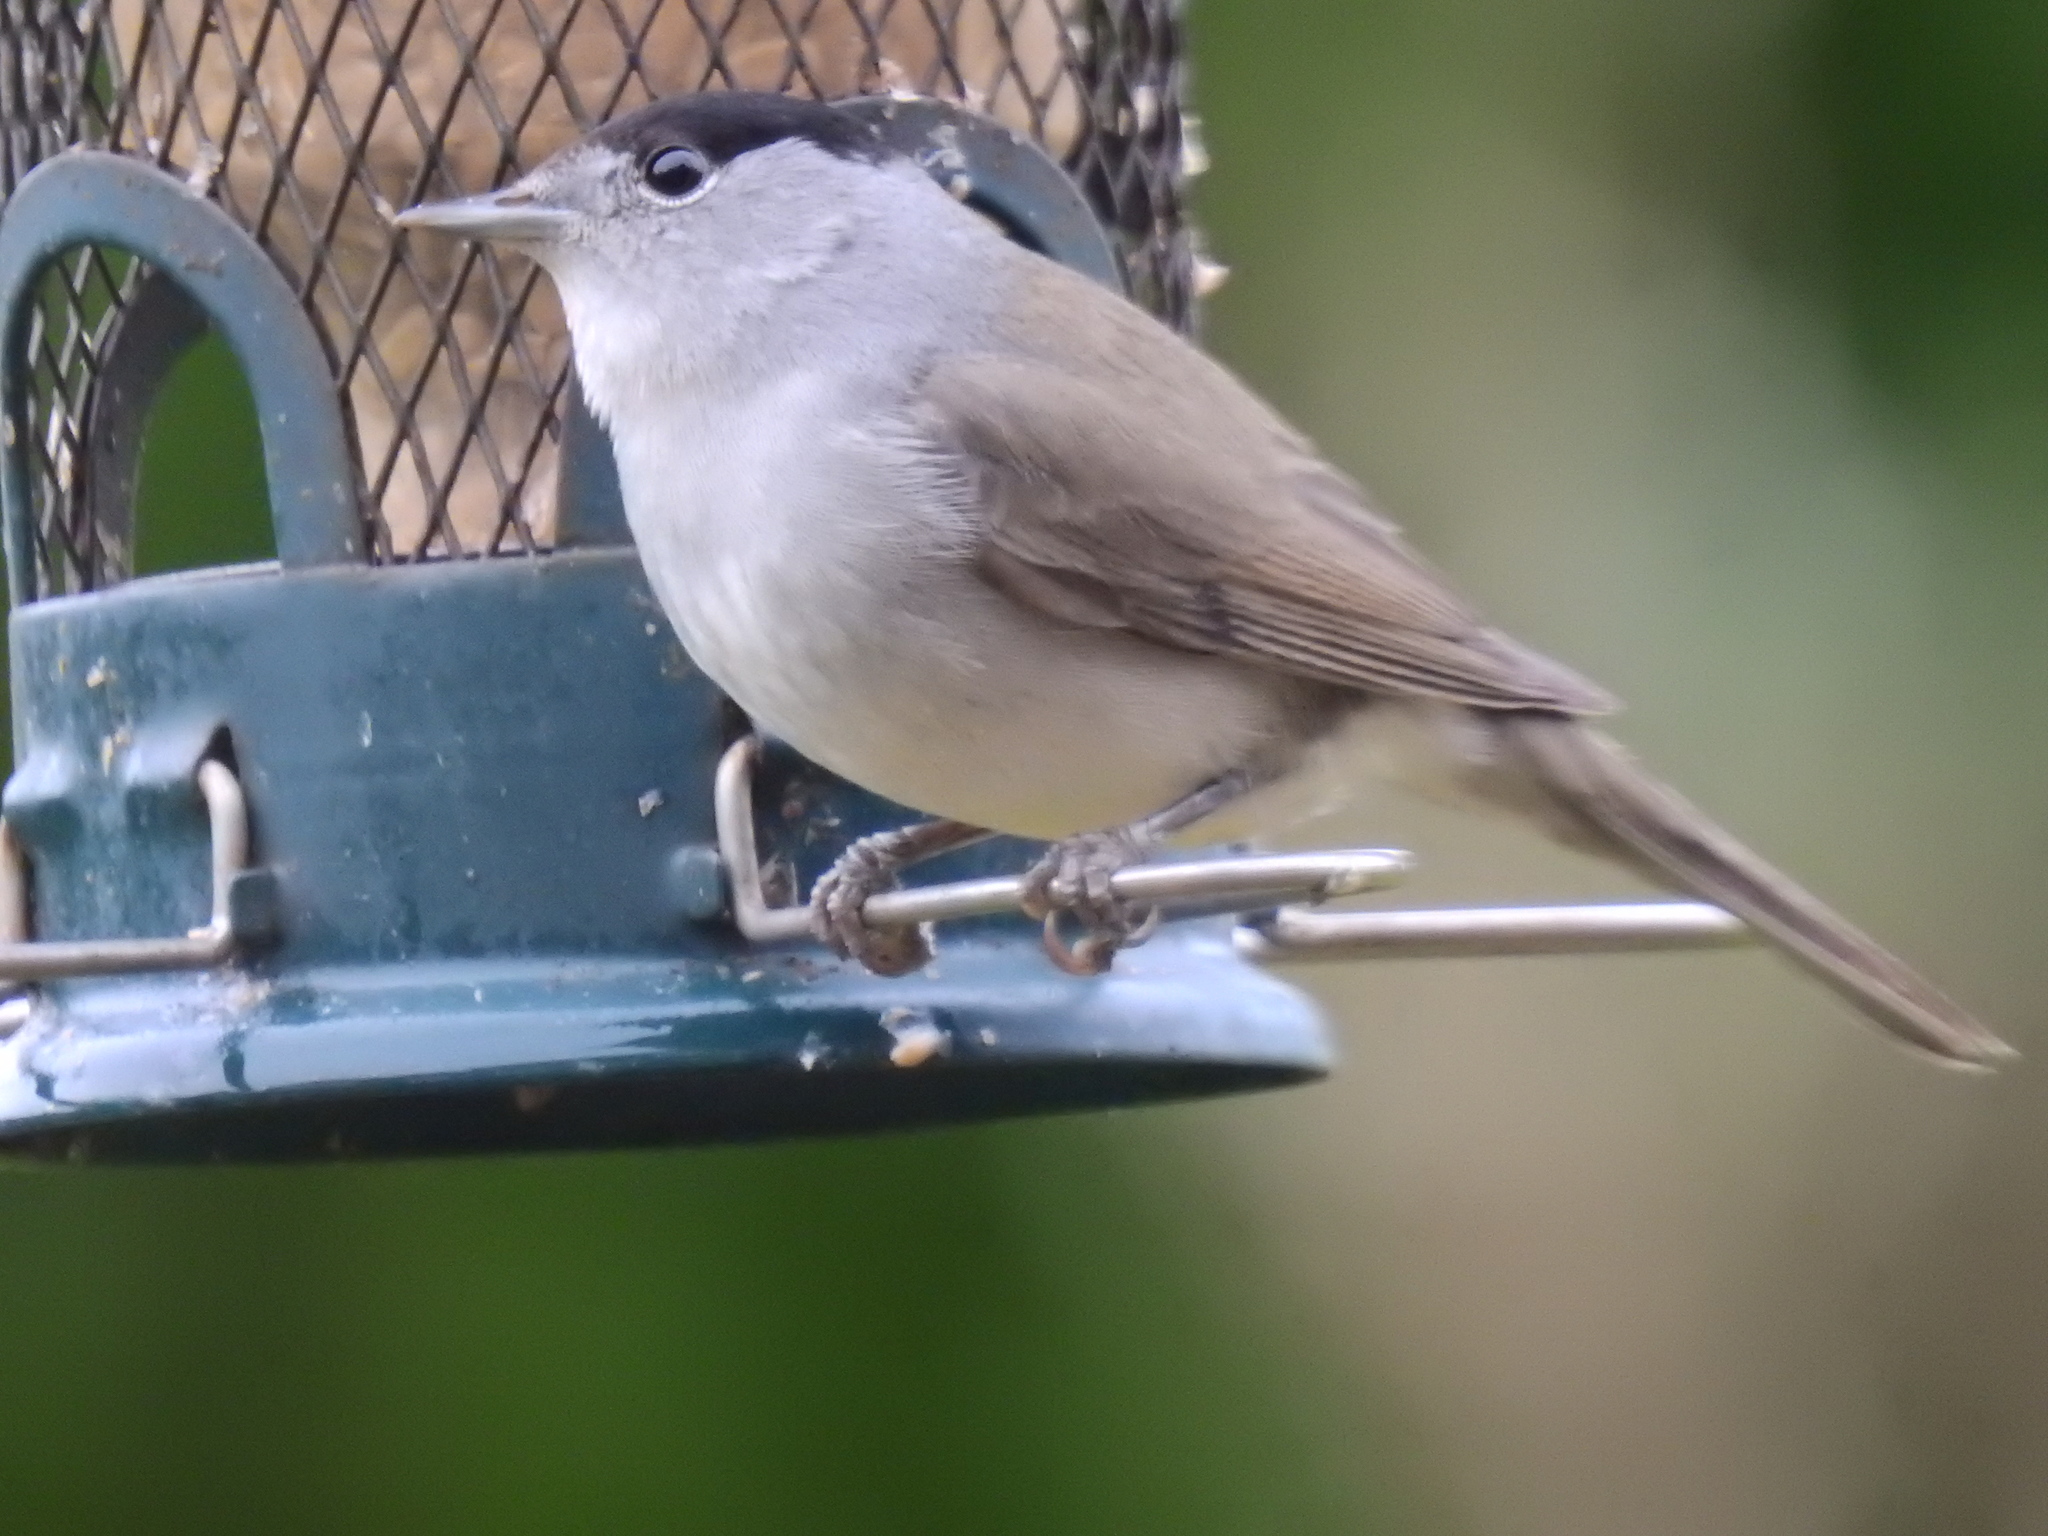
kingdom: Animalia
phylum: Chordata
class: Aves
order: Passeriformes
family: Sylviidae
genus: Sylvia
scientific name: Sylvia atricapilla
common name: Eurasian blackcap
